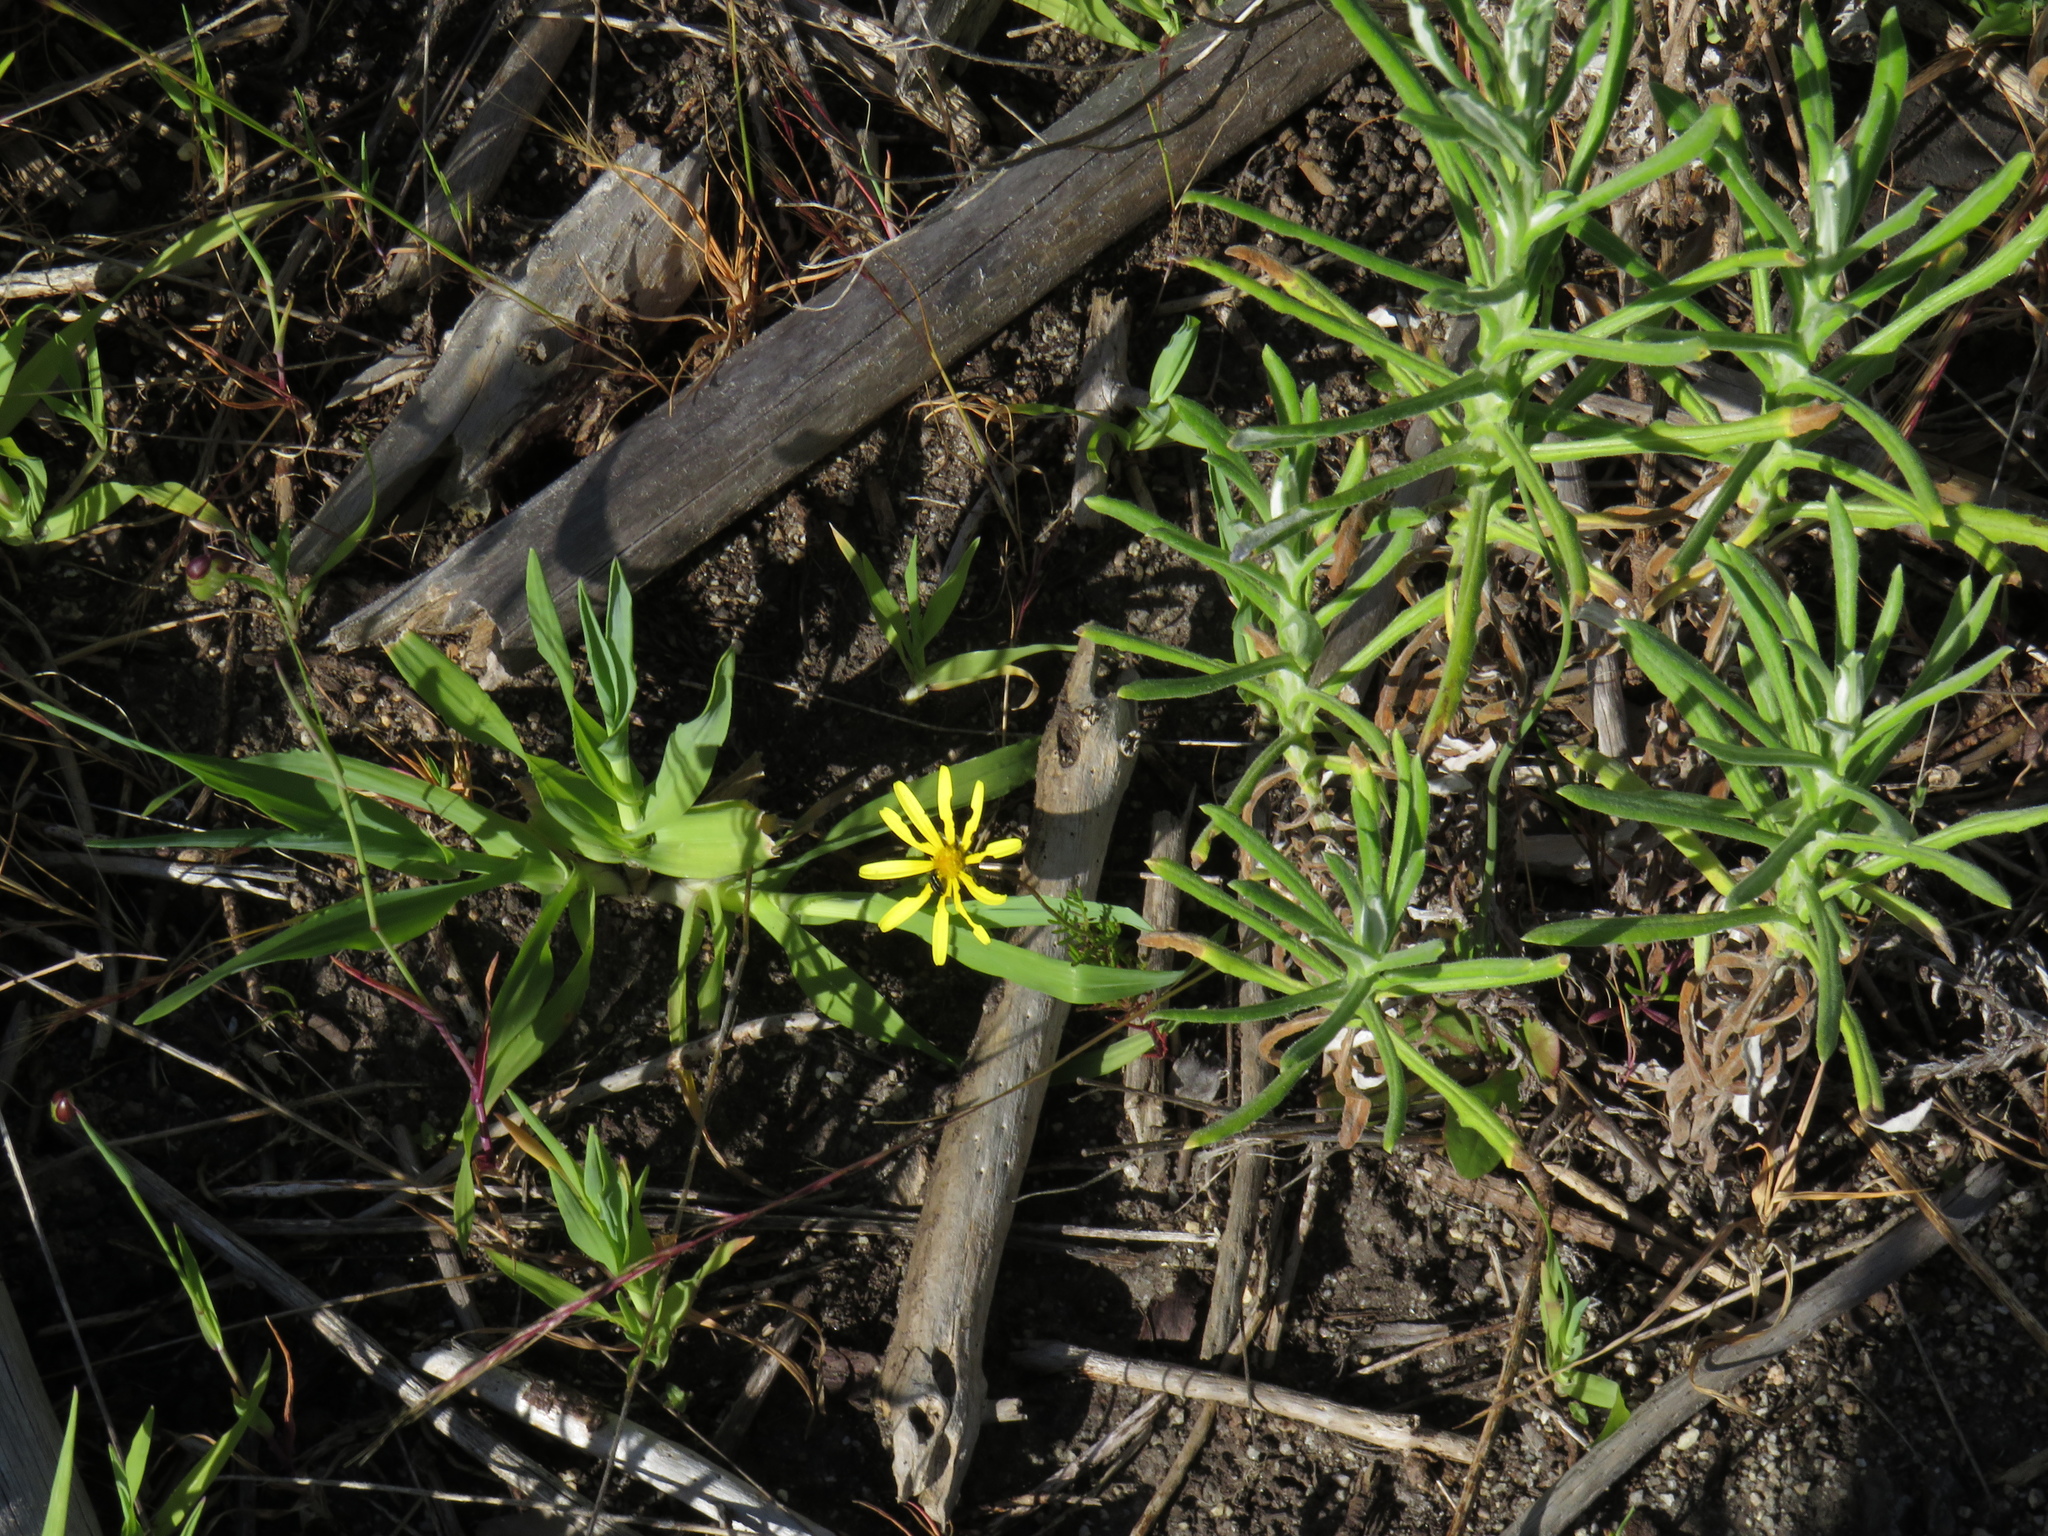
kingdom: Plantae
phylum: Tracheophyta
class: Magnoliopsida
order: Asterales
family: Asteraceae
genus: Ursinia
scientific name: Ursinia anthemoides
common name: Ursinia
